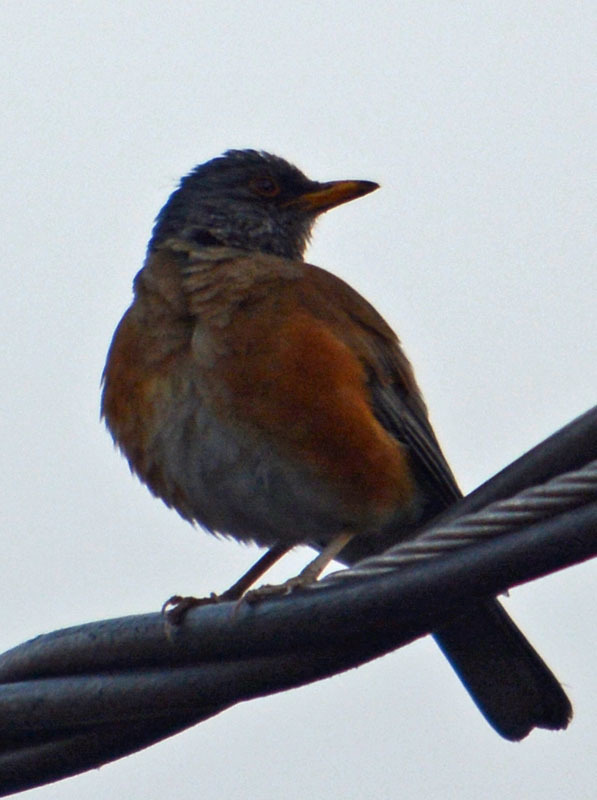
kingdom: Animalia
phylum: Chordata
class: Aves
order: Passeriformes
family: Turdidae
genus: Turdus
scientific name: Turdus rufopalliatus
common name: Rufous-backed robin
